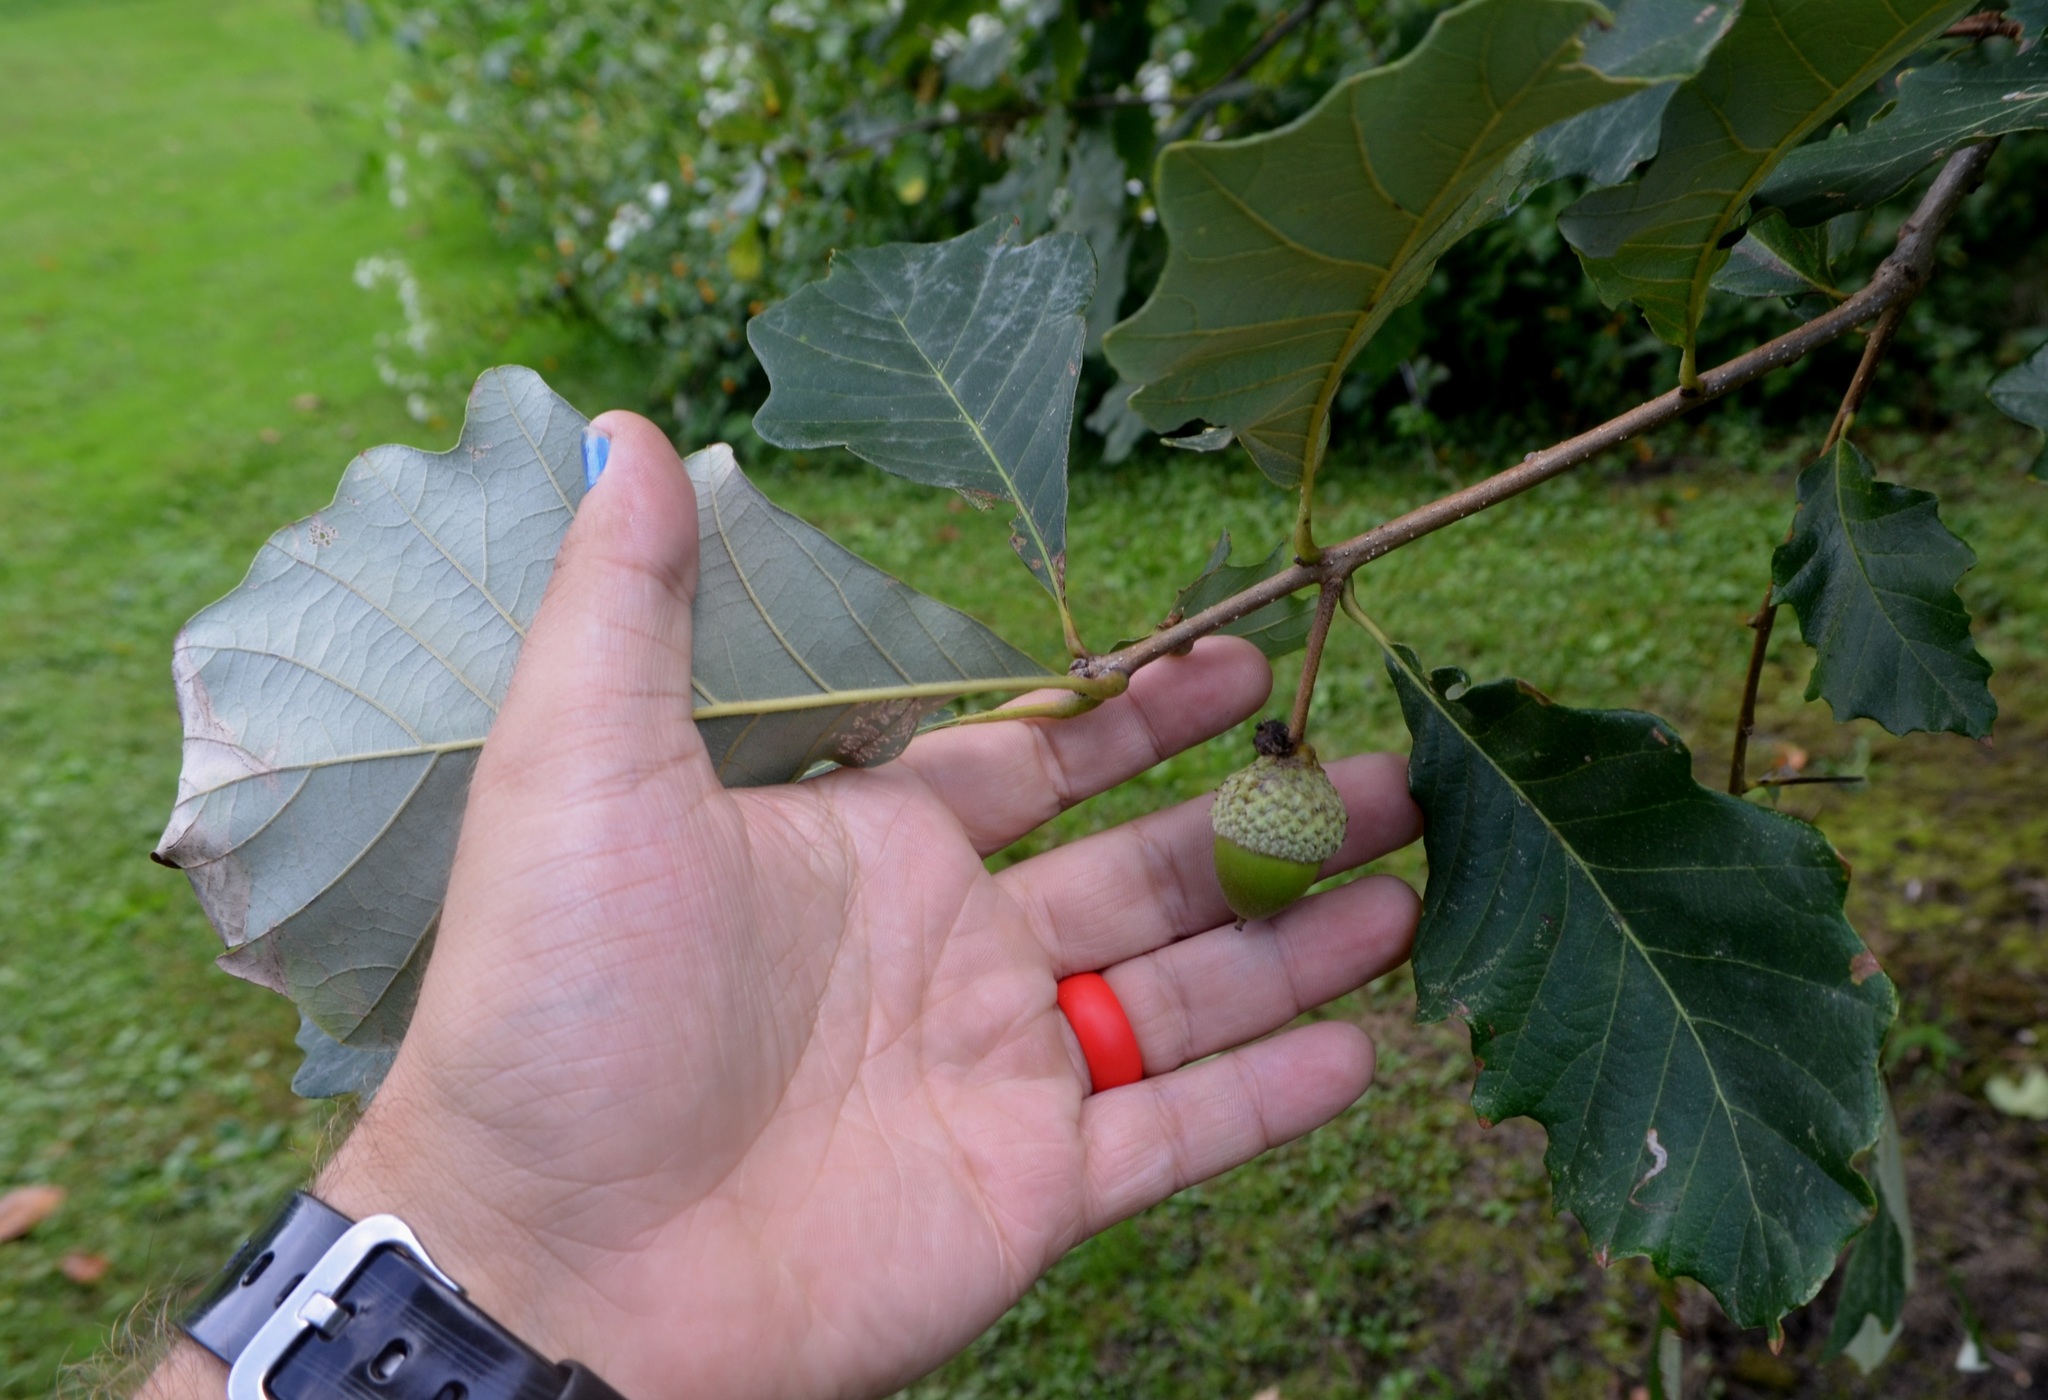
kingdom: Plantae
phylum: Tracheophyta
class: Magnoliopsida
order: Fagales
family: Fagaceae
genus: Quercus
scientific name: Quercus bicolor
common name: Swamp white oak
